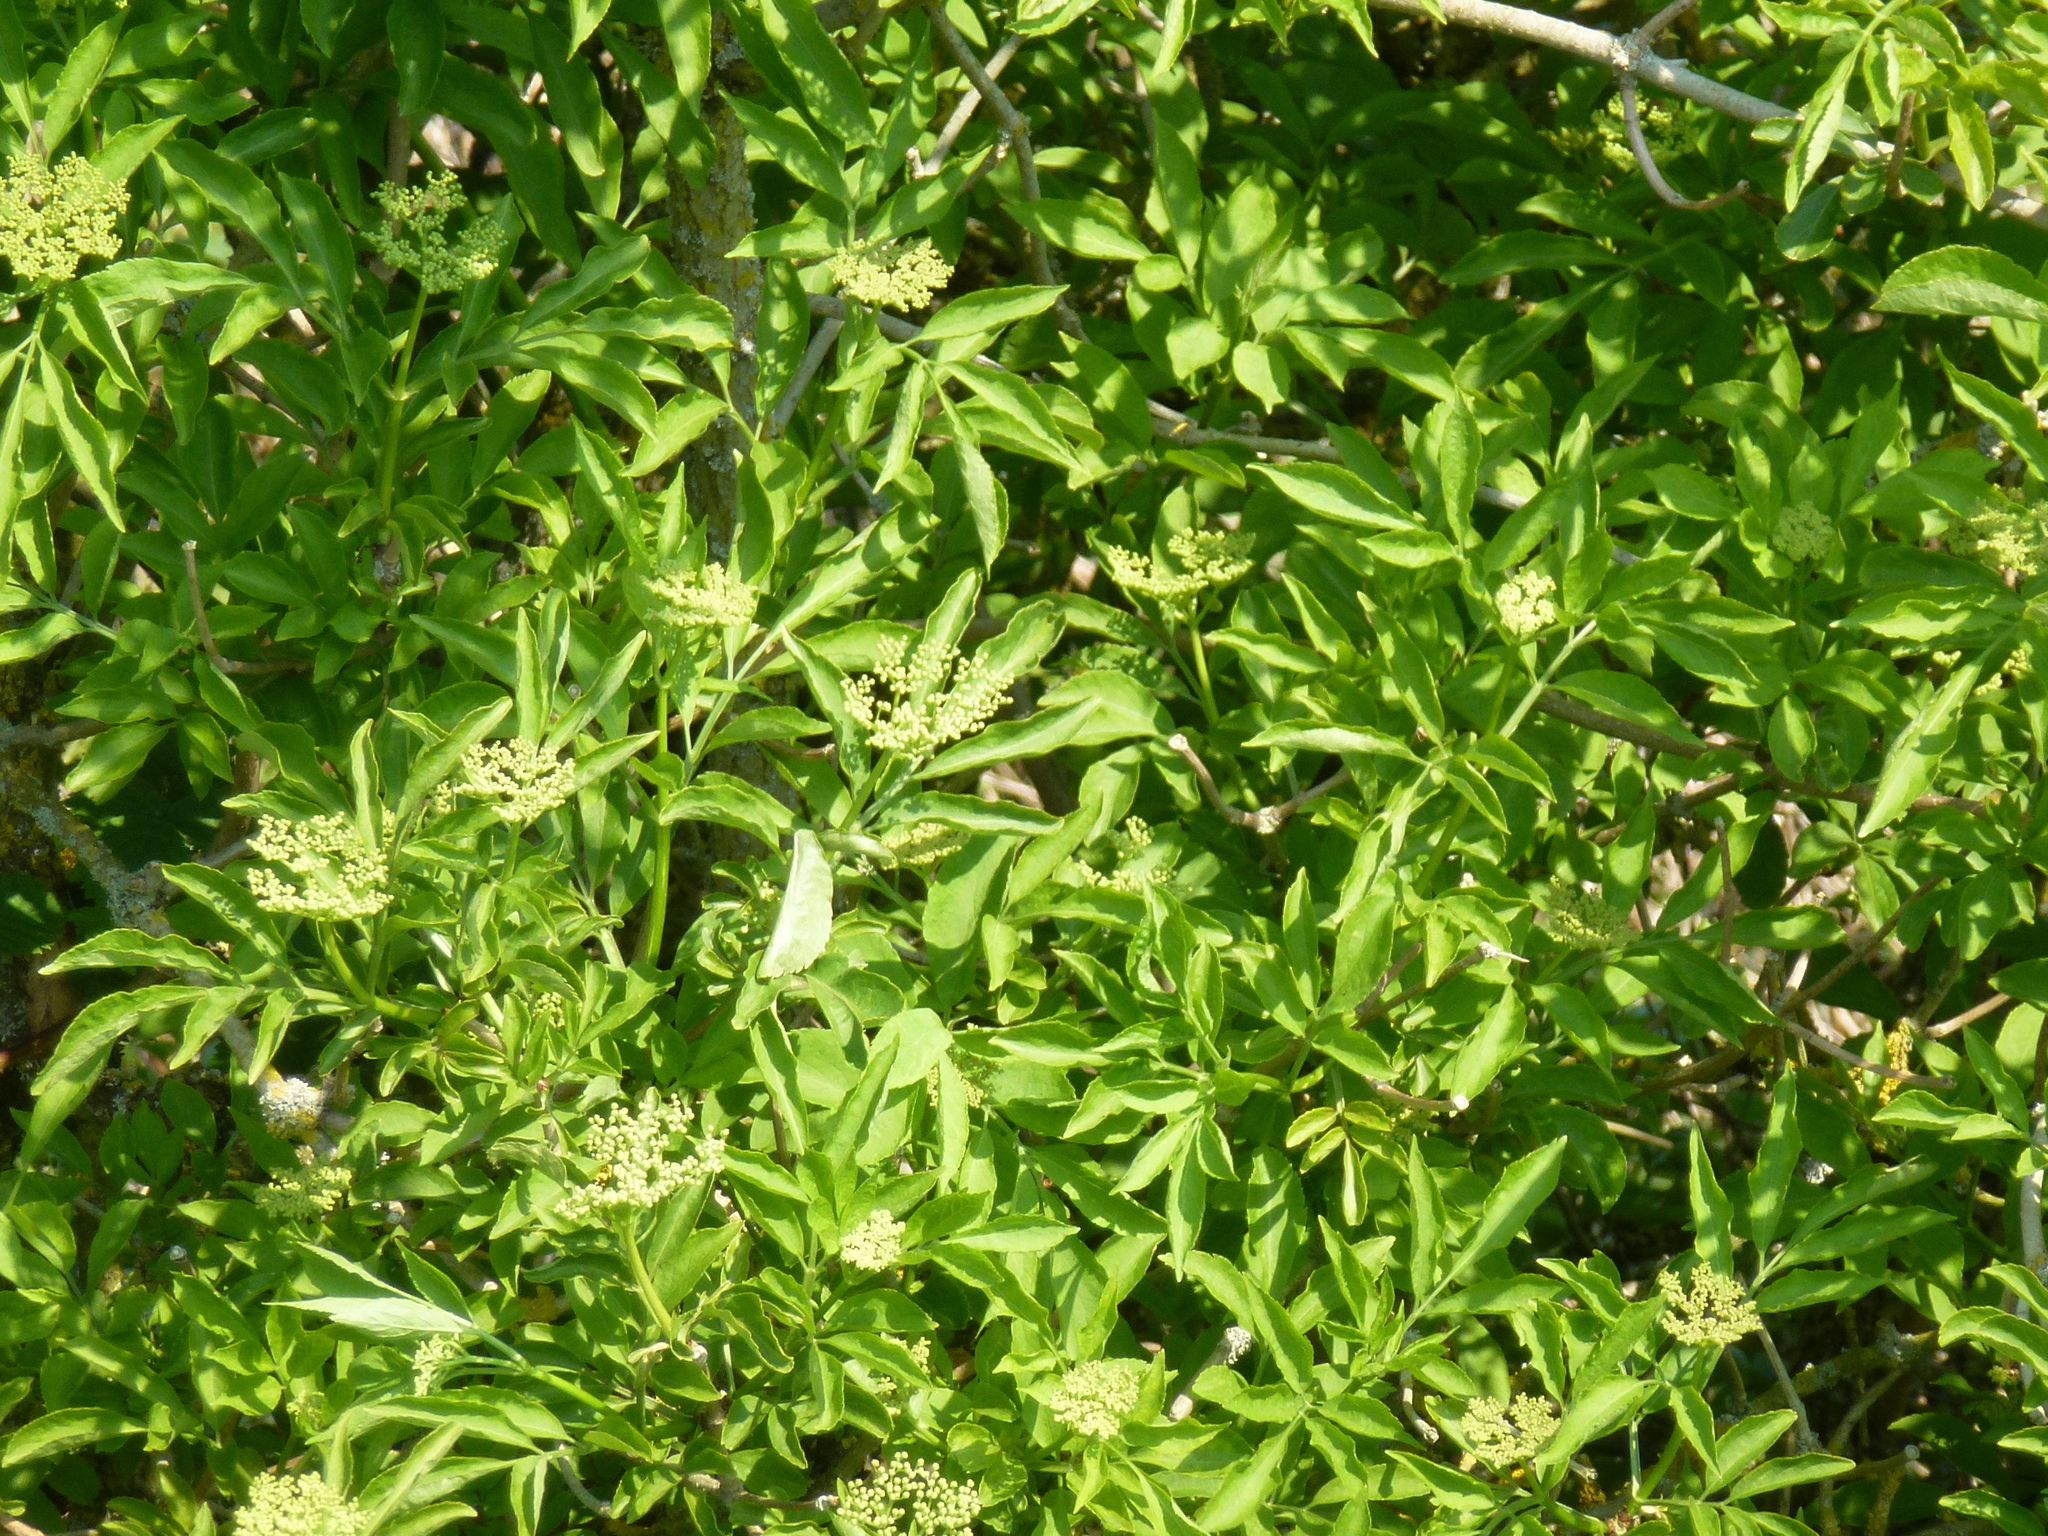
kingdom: Plantae
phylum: Tracheophyta
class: Magnoliopsida
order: Dipsacales
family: Viburnaceae
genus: Sambucus
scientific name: Sambucus nigra
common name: Elder
